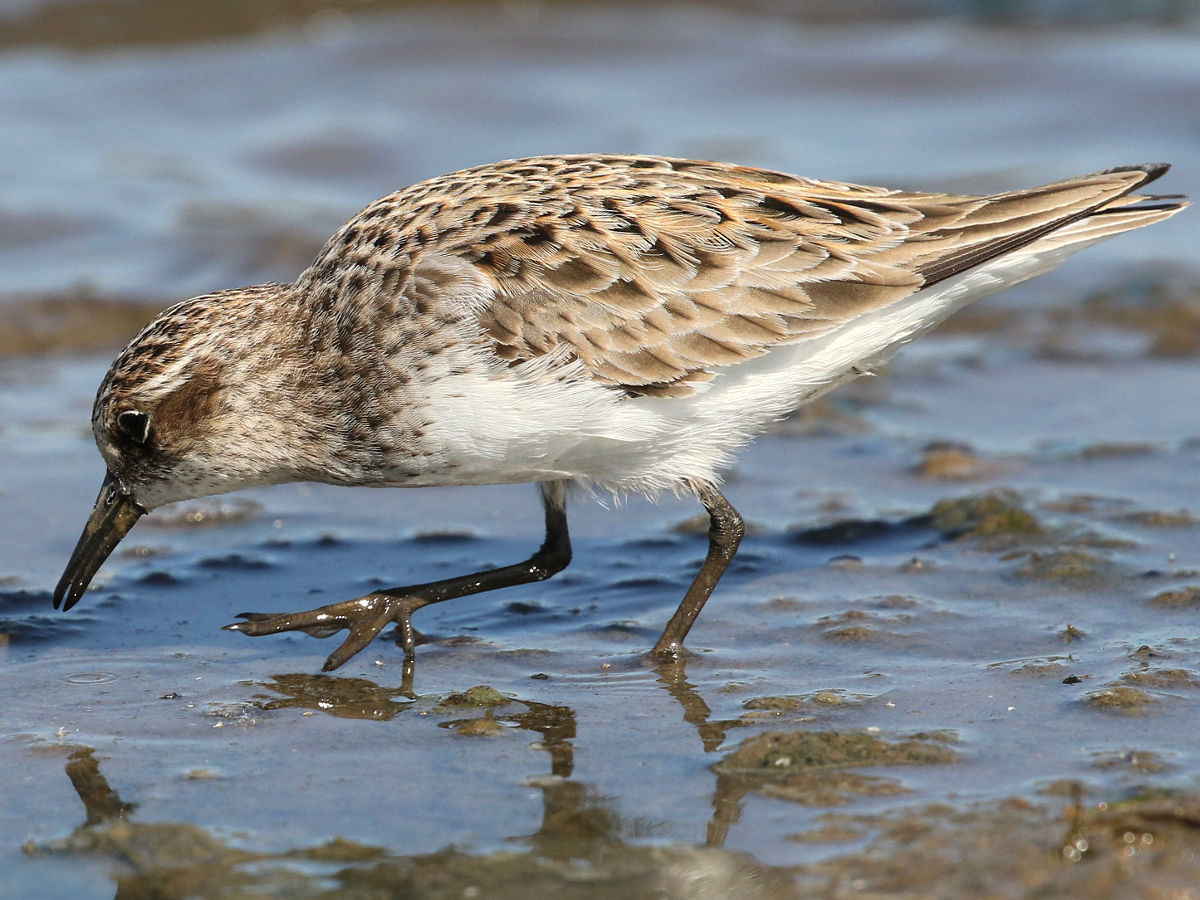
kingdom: Animalia
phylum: Chordata
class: Aves
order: Charadriiformes
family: Scolopacidae
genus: Calidris
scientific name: Calidris pusilla
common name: Semipalmated sandpiper
